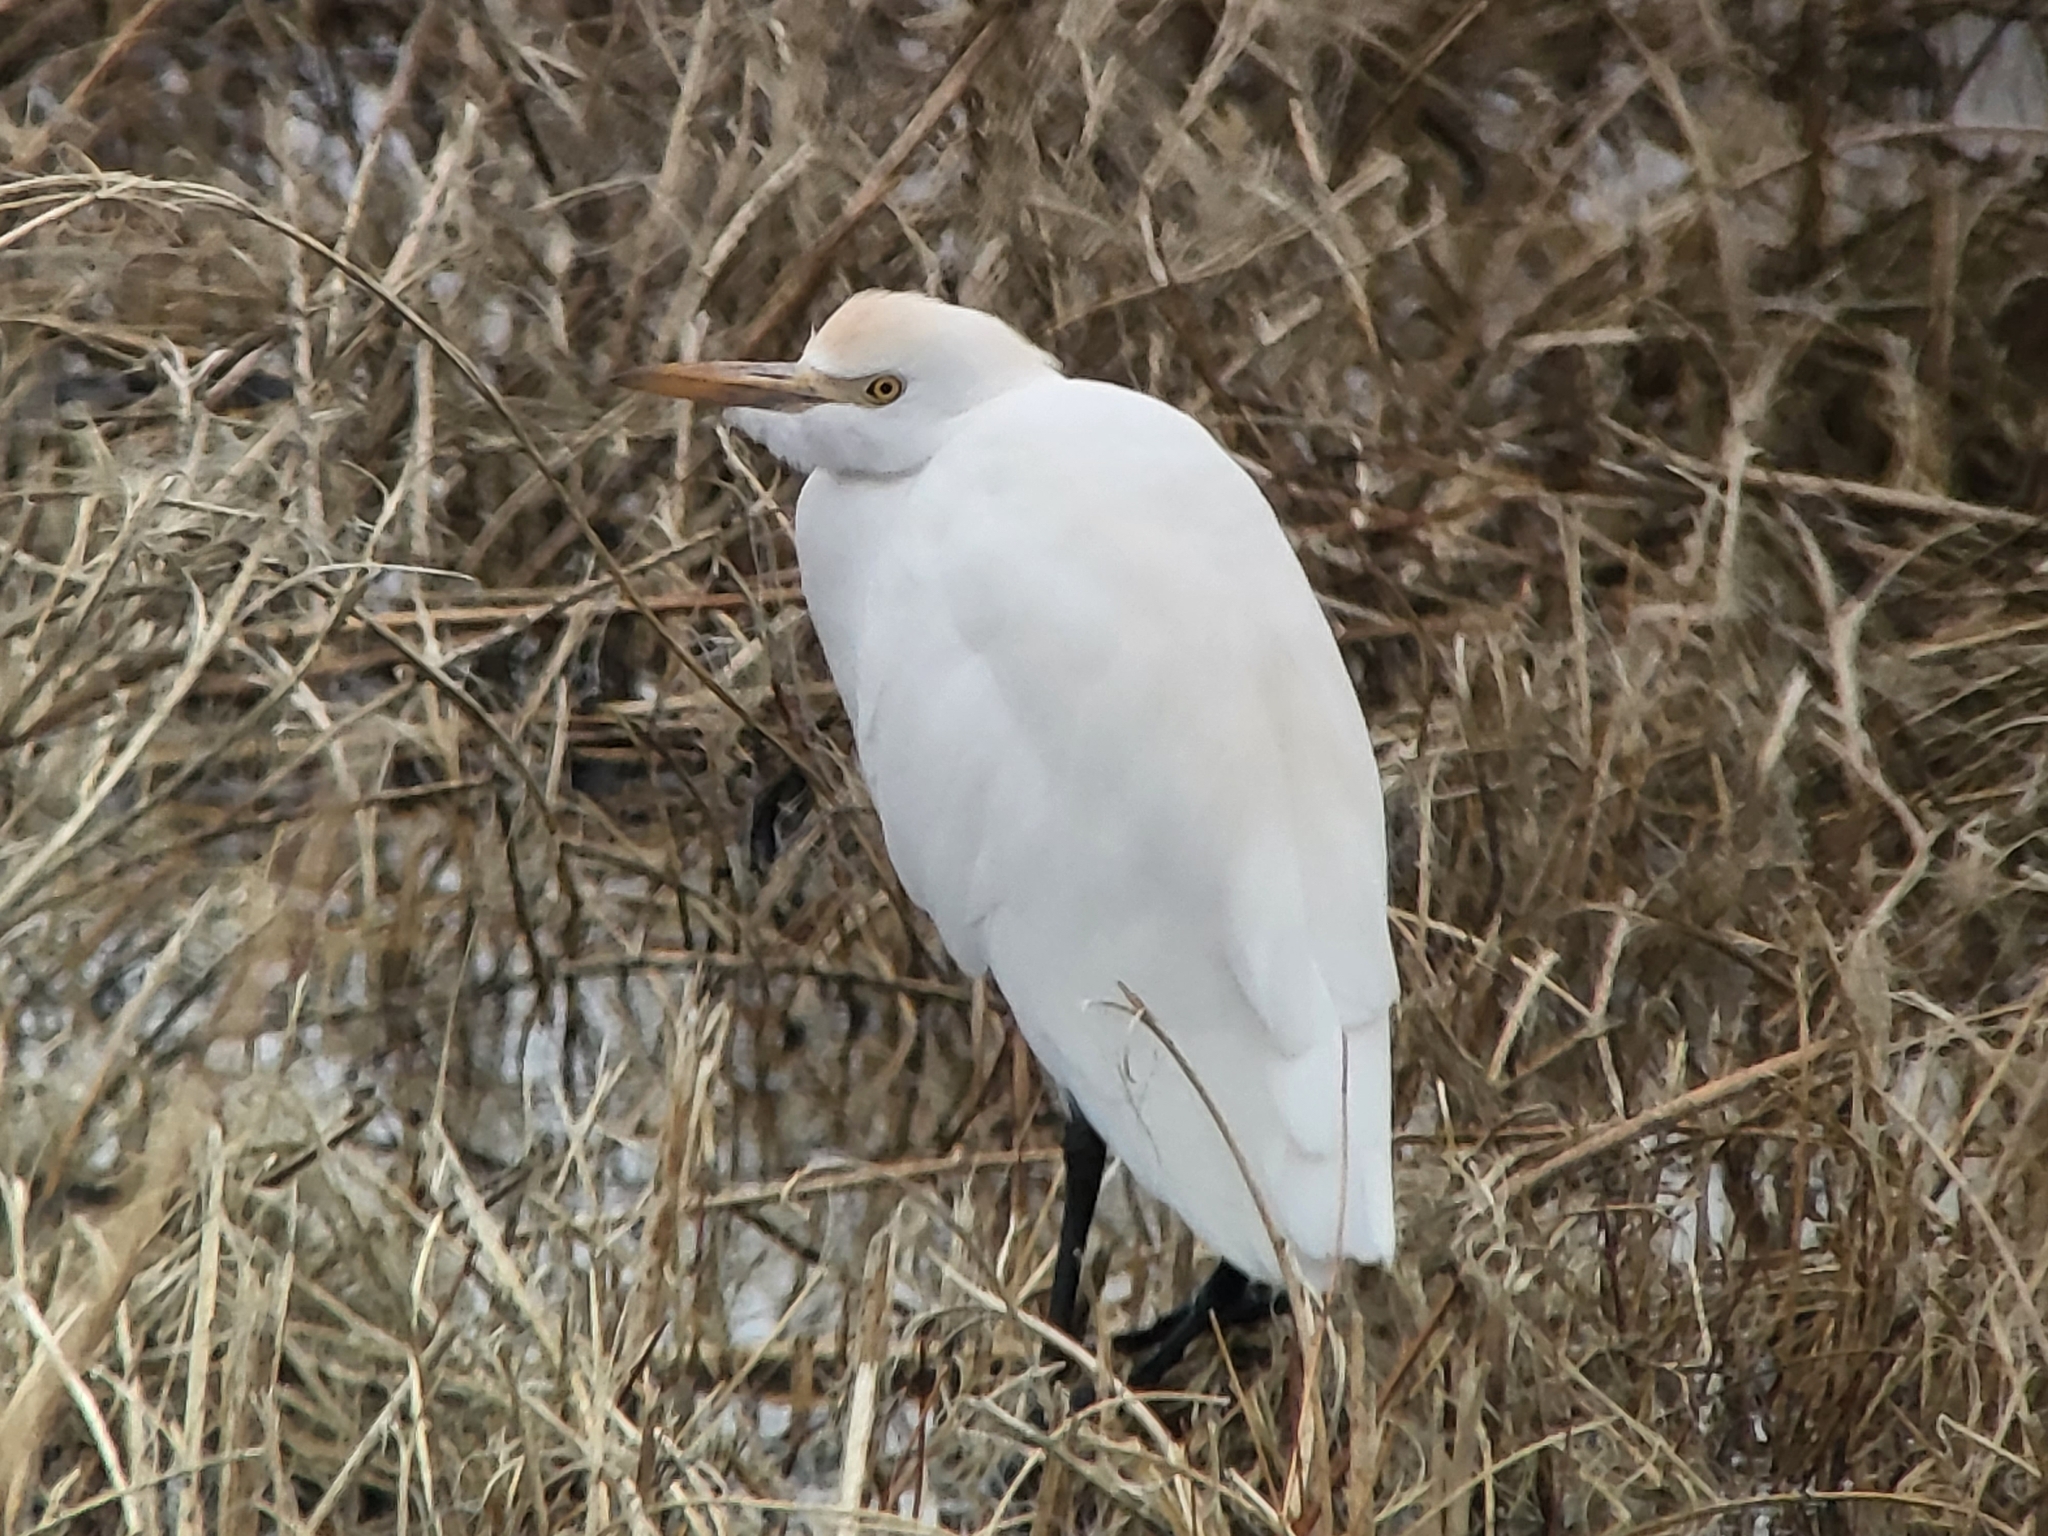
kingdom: Animalia
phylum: Chordata
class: Aves
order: Pelecaniformes
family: Ardeidae
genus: Bubulcus
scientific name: Bubulcus ibis
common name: Cattle egret
